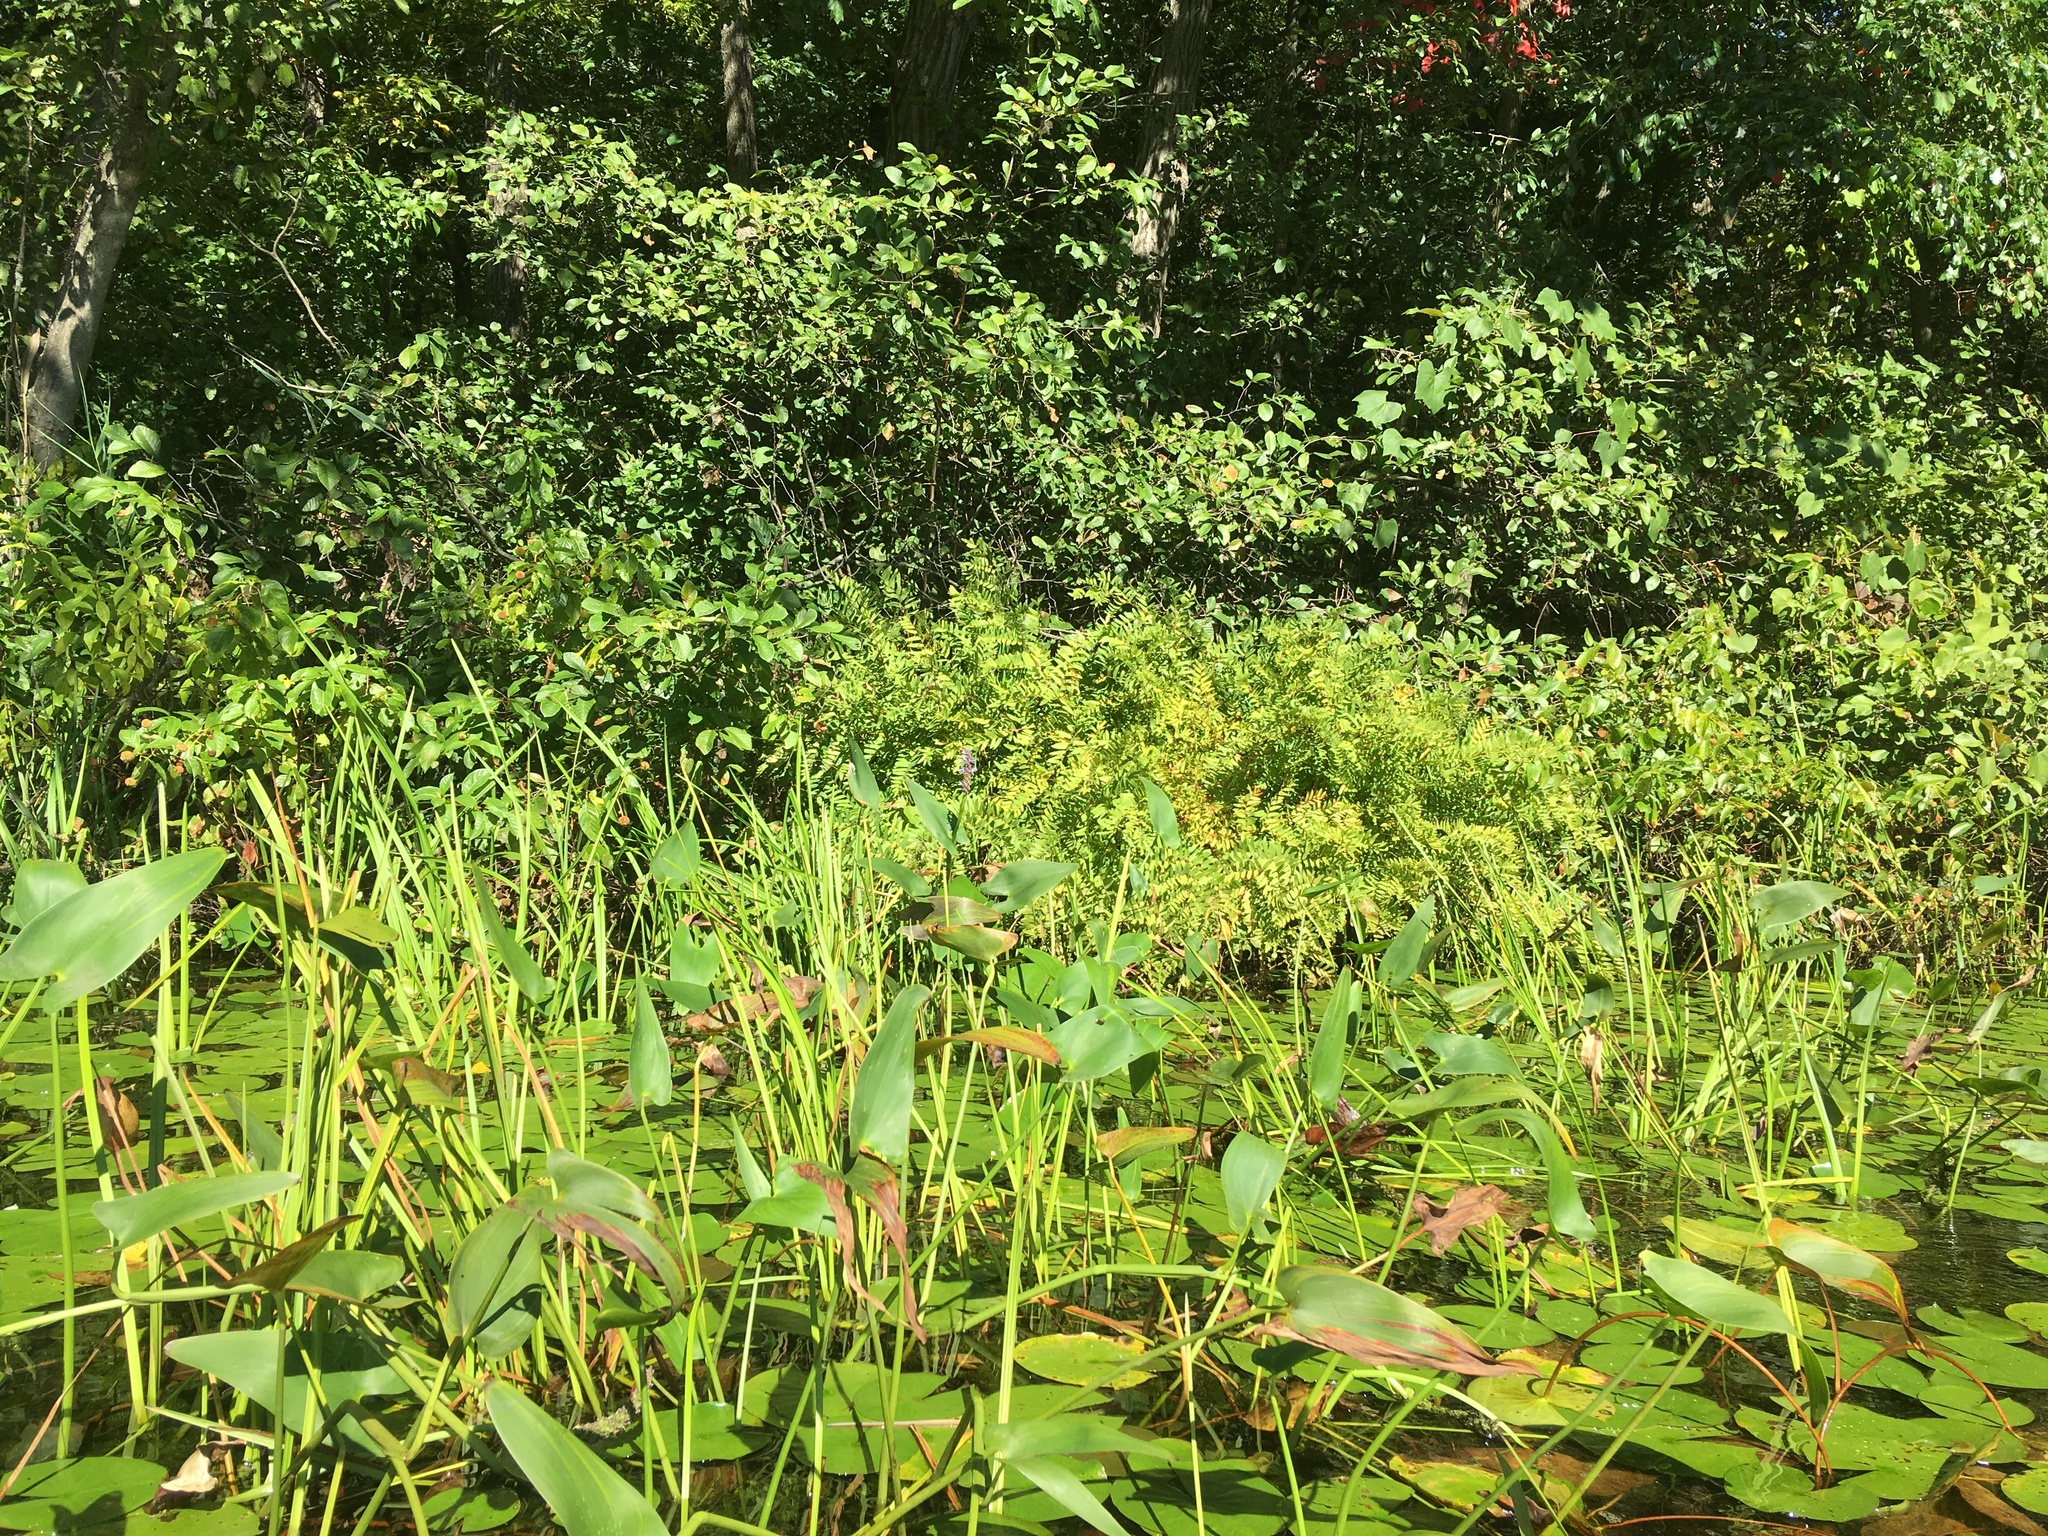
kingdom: Plantae
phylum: Tracheophyta
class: Polypodiopsida
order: Osmundales
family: Osmundaceae
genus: Osmunda
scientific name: Osmunda spectabilis
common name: American royal fern
